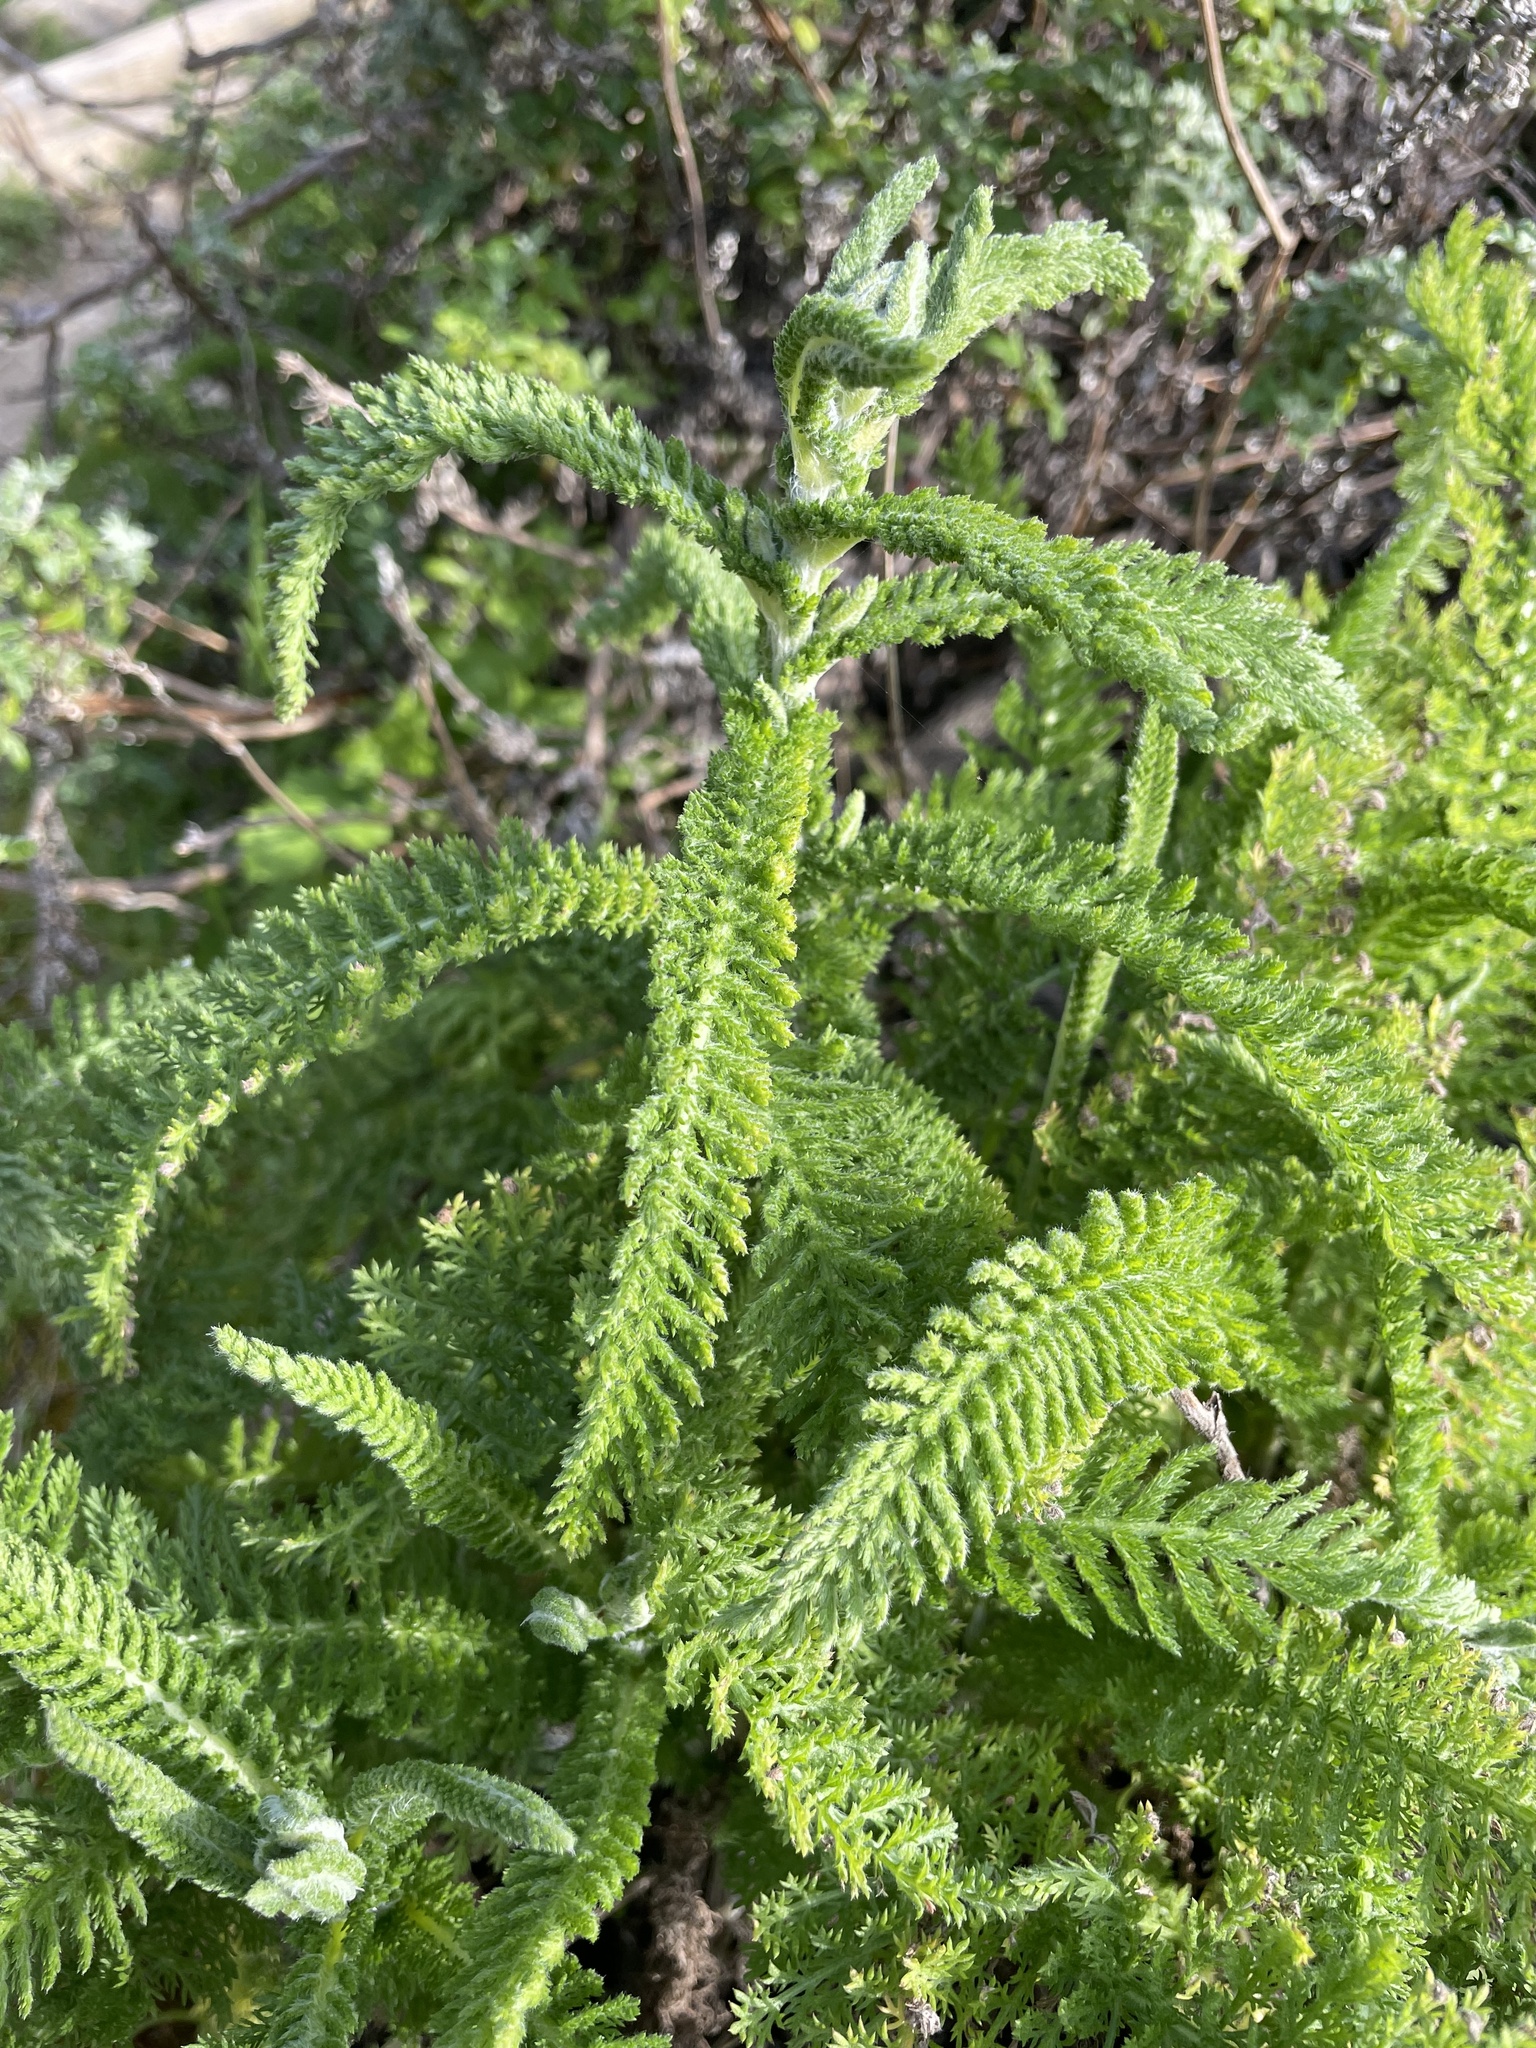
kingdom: Plantae
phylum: Tracheophyta
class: Magnoliopsida
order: Asterales
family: Asteraceae
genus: Achillea
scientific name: Achillea millefolium
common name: Yarrow
